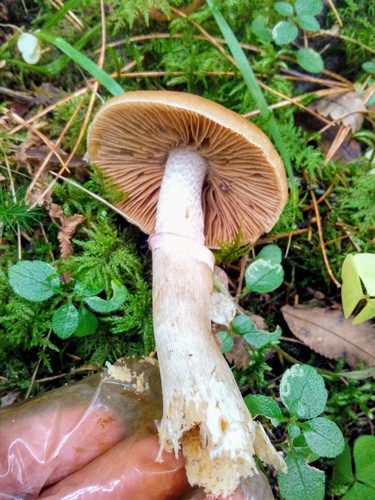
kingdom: Fungi
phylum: Basidiomycota
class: Agaricomycetes
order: Agaricales
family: Cortinariaceae
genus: Cortinarius
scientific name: Cortinarius caperatus
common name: The gypsy
